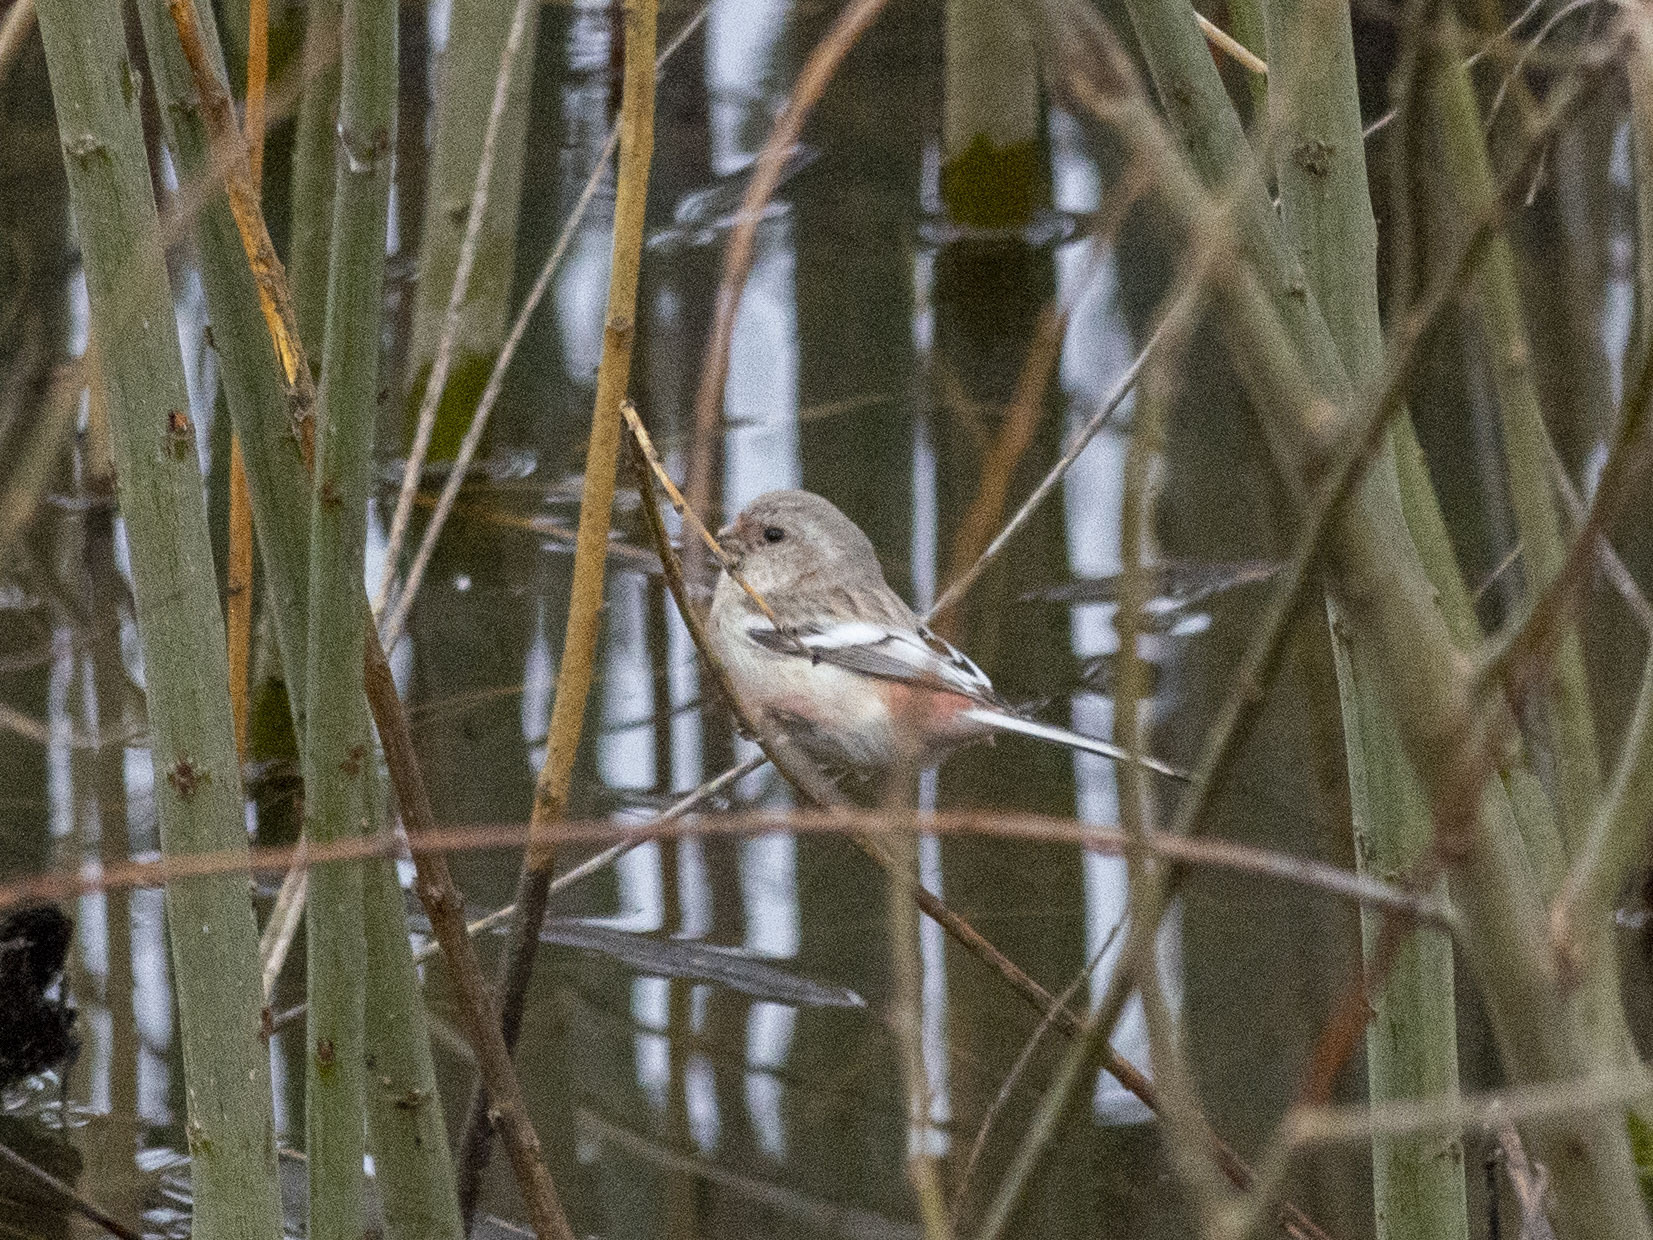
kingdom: Animalia
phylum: Chordata
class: Aves
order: Passeriformes
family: Fringillidae
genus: Carpodacus
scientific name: Carpodacus sibiricus
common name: Long-tailed rosefinch
